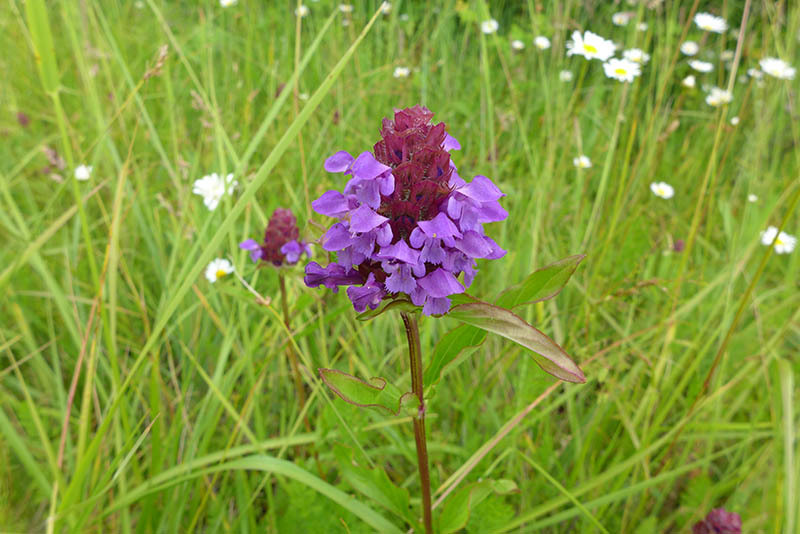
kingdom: Plantae
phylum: Tracheophyta
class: Magnoliopsida
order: Lamiales
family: Lamiaceae
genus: Prunella
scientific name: Prunella vulgaris
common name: Heal-all
